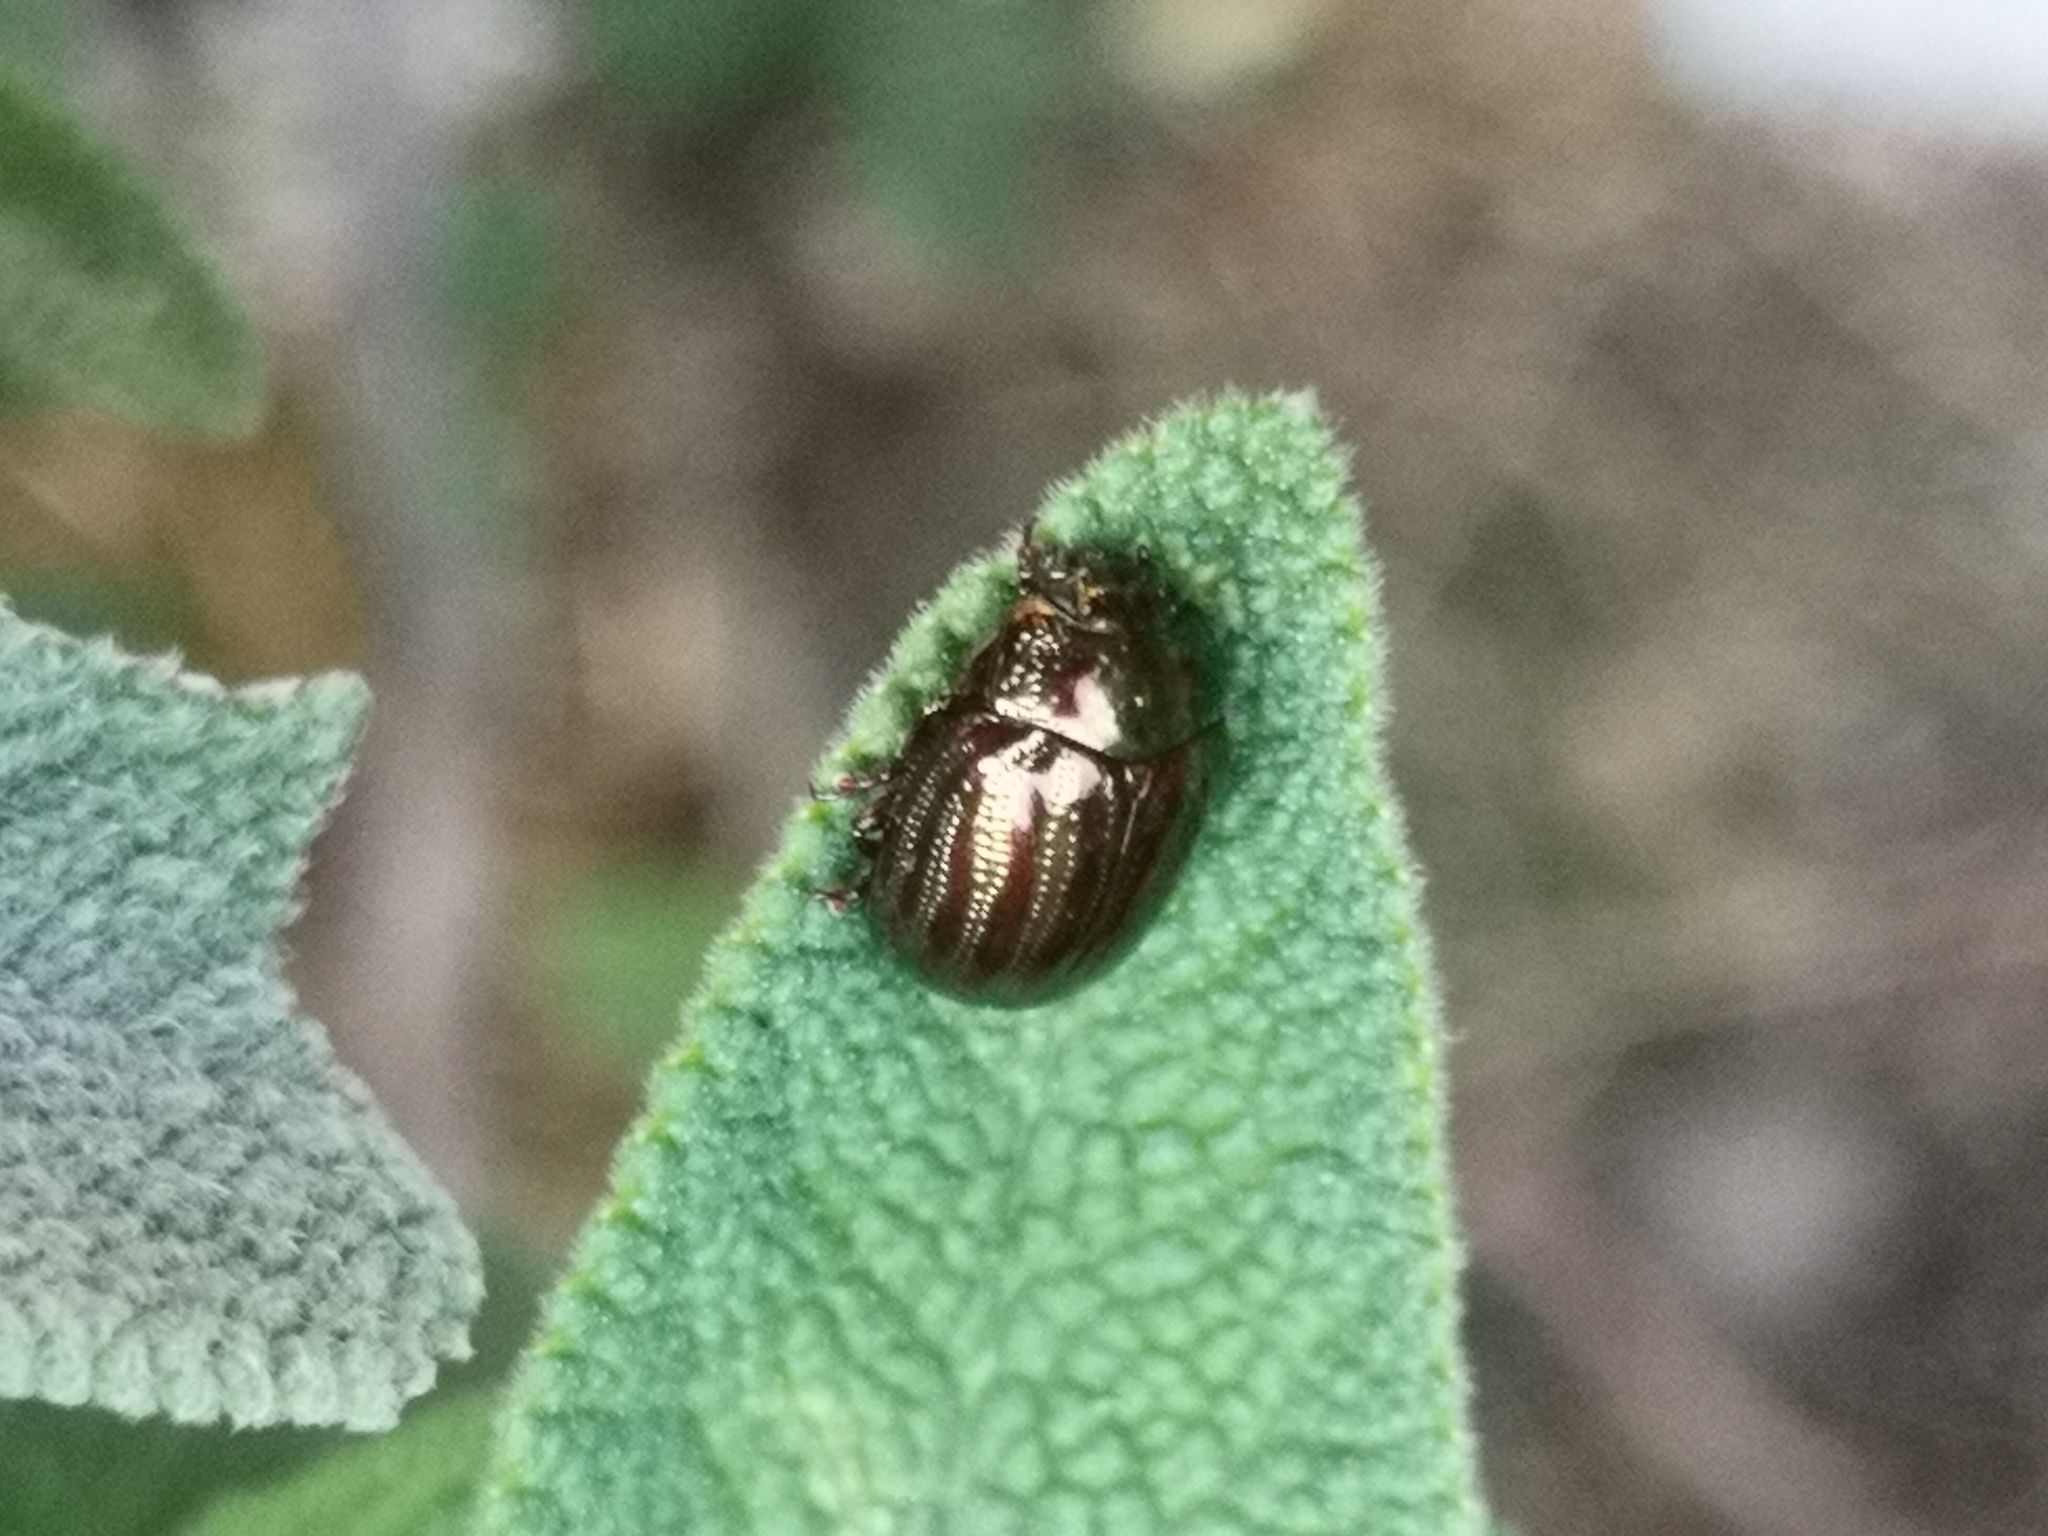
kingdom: Animalia
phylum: Arthropoda
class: Insecta
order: Coleoptera
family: Chrysomelidae
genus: Chrysolina
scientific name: Chrysolina americana
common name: Rosemary beetle
